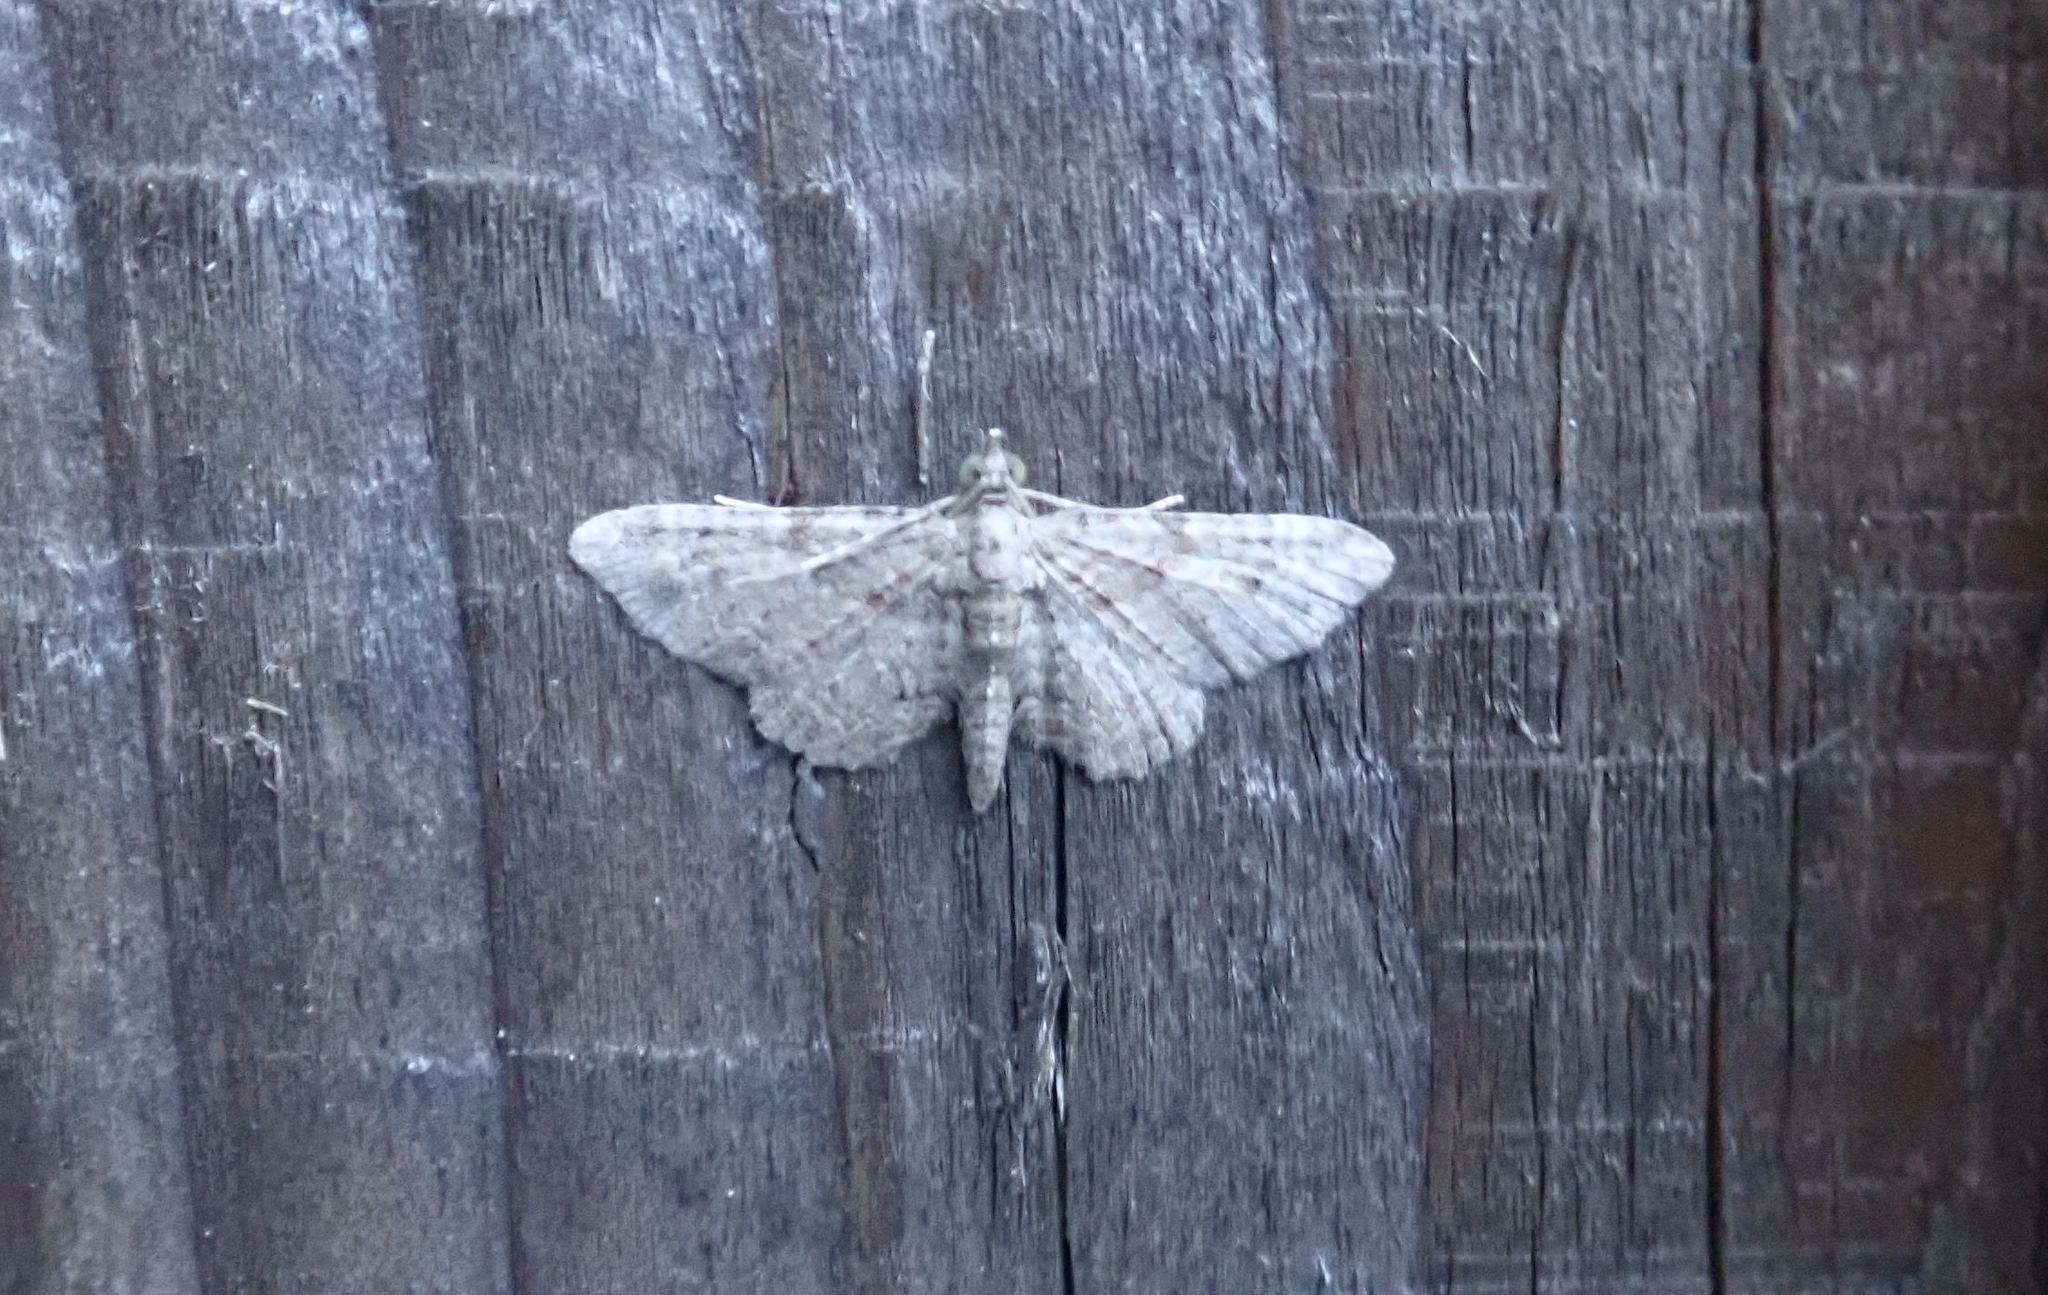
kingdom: Animalia
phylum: Arthropoda
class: Insecta
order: Lepidoptera
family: Geometridae
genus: Gymnoscelis
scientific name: Gymnoscelis rufifasciata
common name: Double-striped pug
